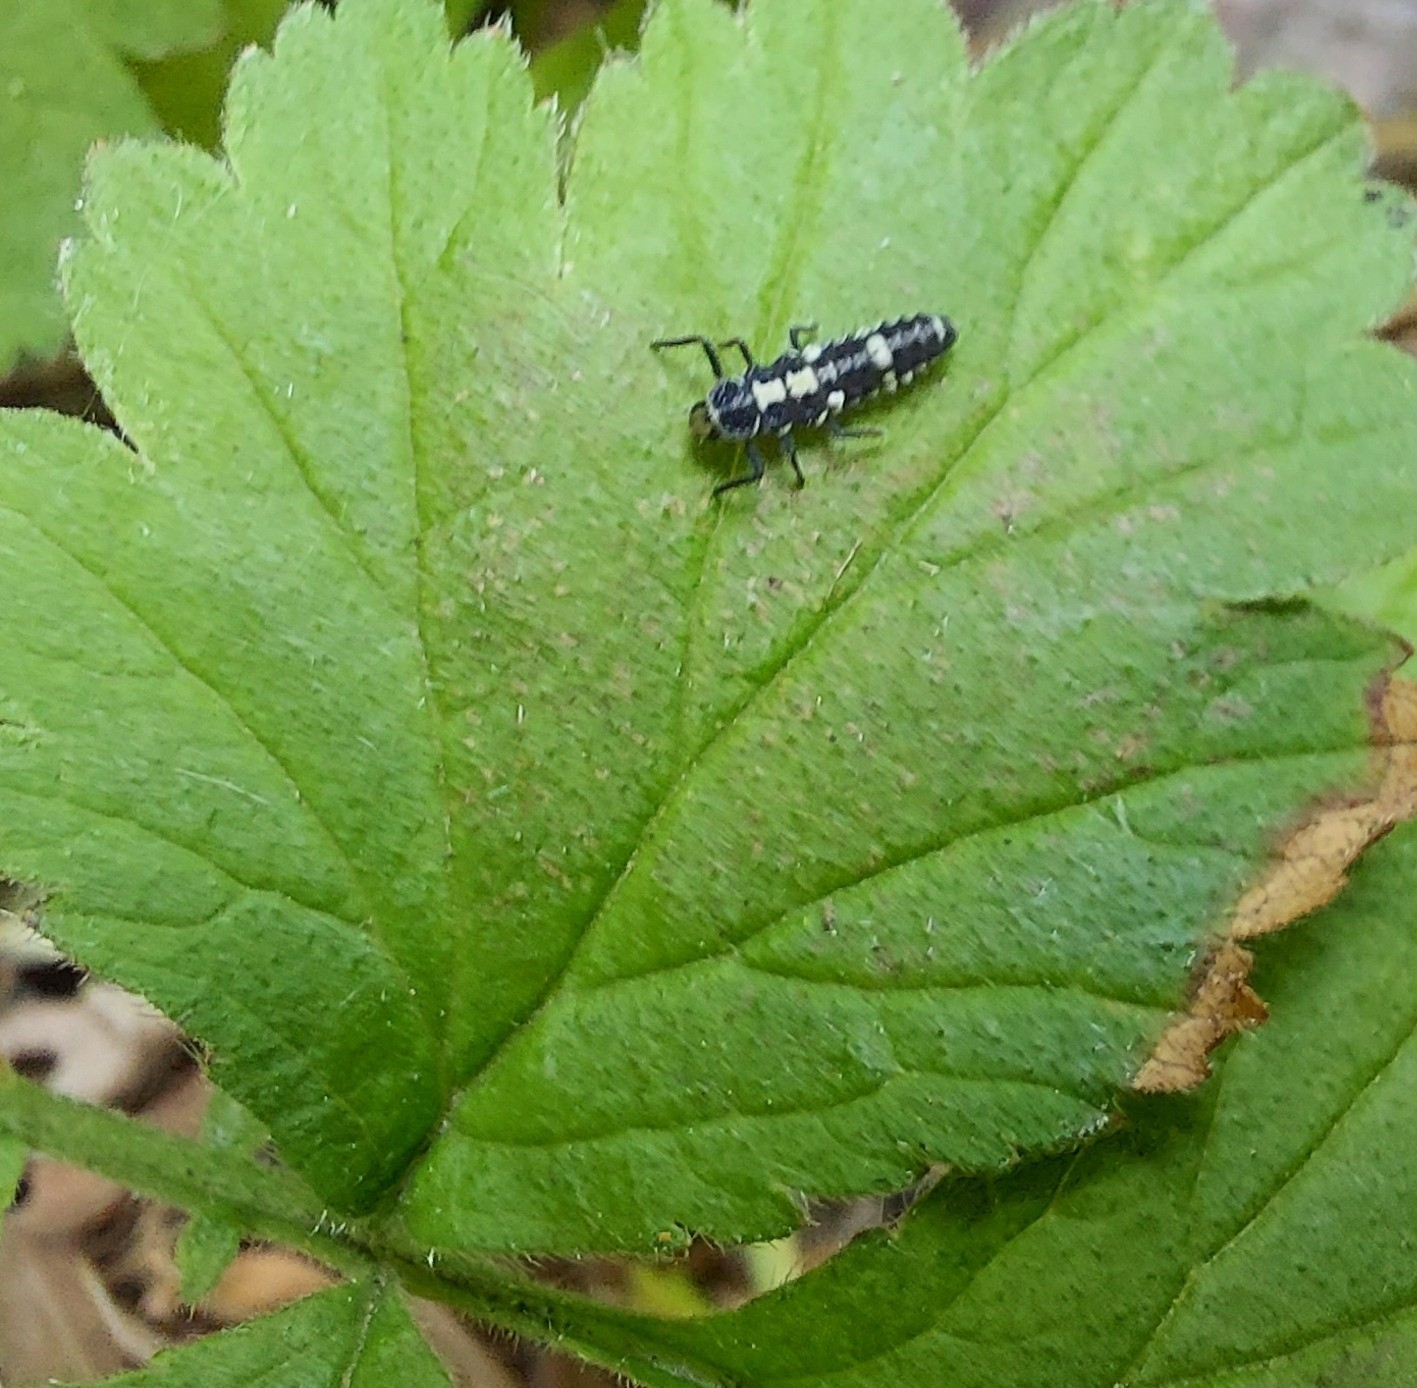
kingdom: Animalia
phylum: Arthropoda
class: Insecta
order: Coleoptera
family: Coccinellidae
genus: Propylaea
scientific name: Propylaea quatuordecimpunctata
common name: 14-spotted ladybird beetle
